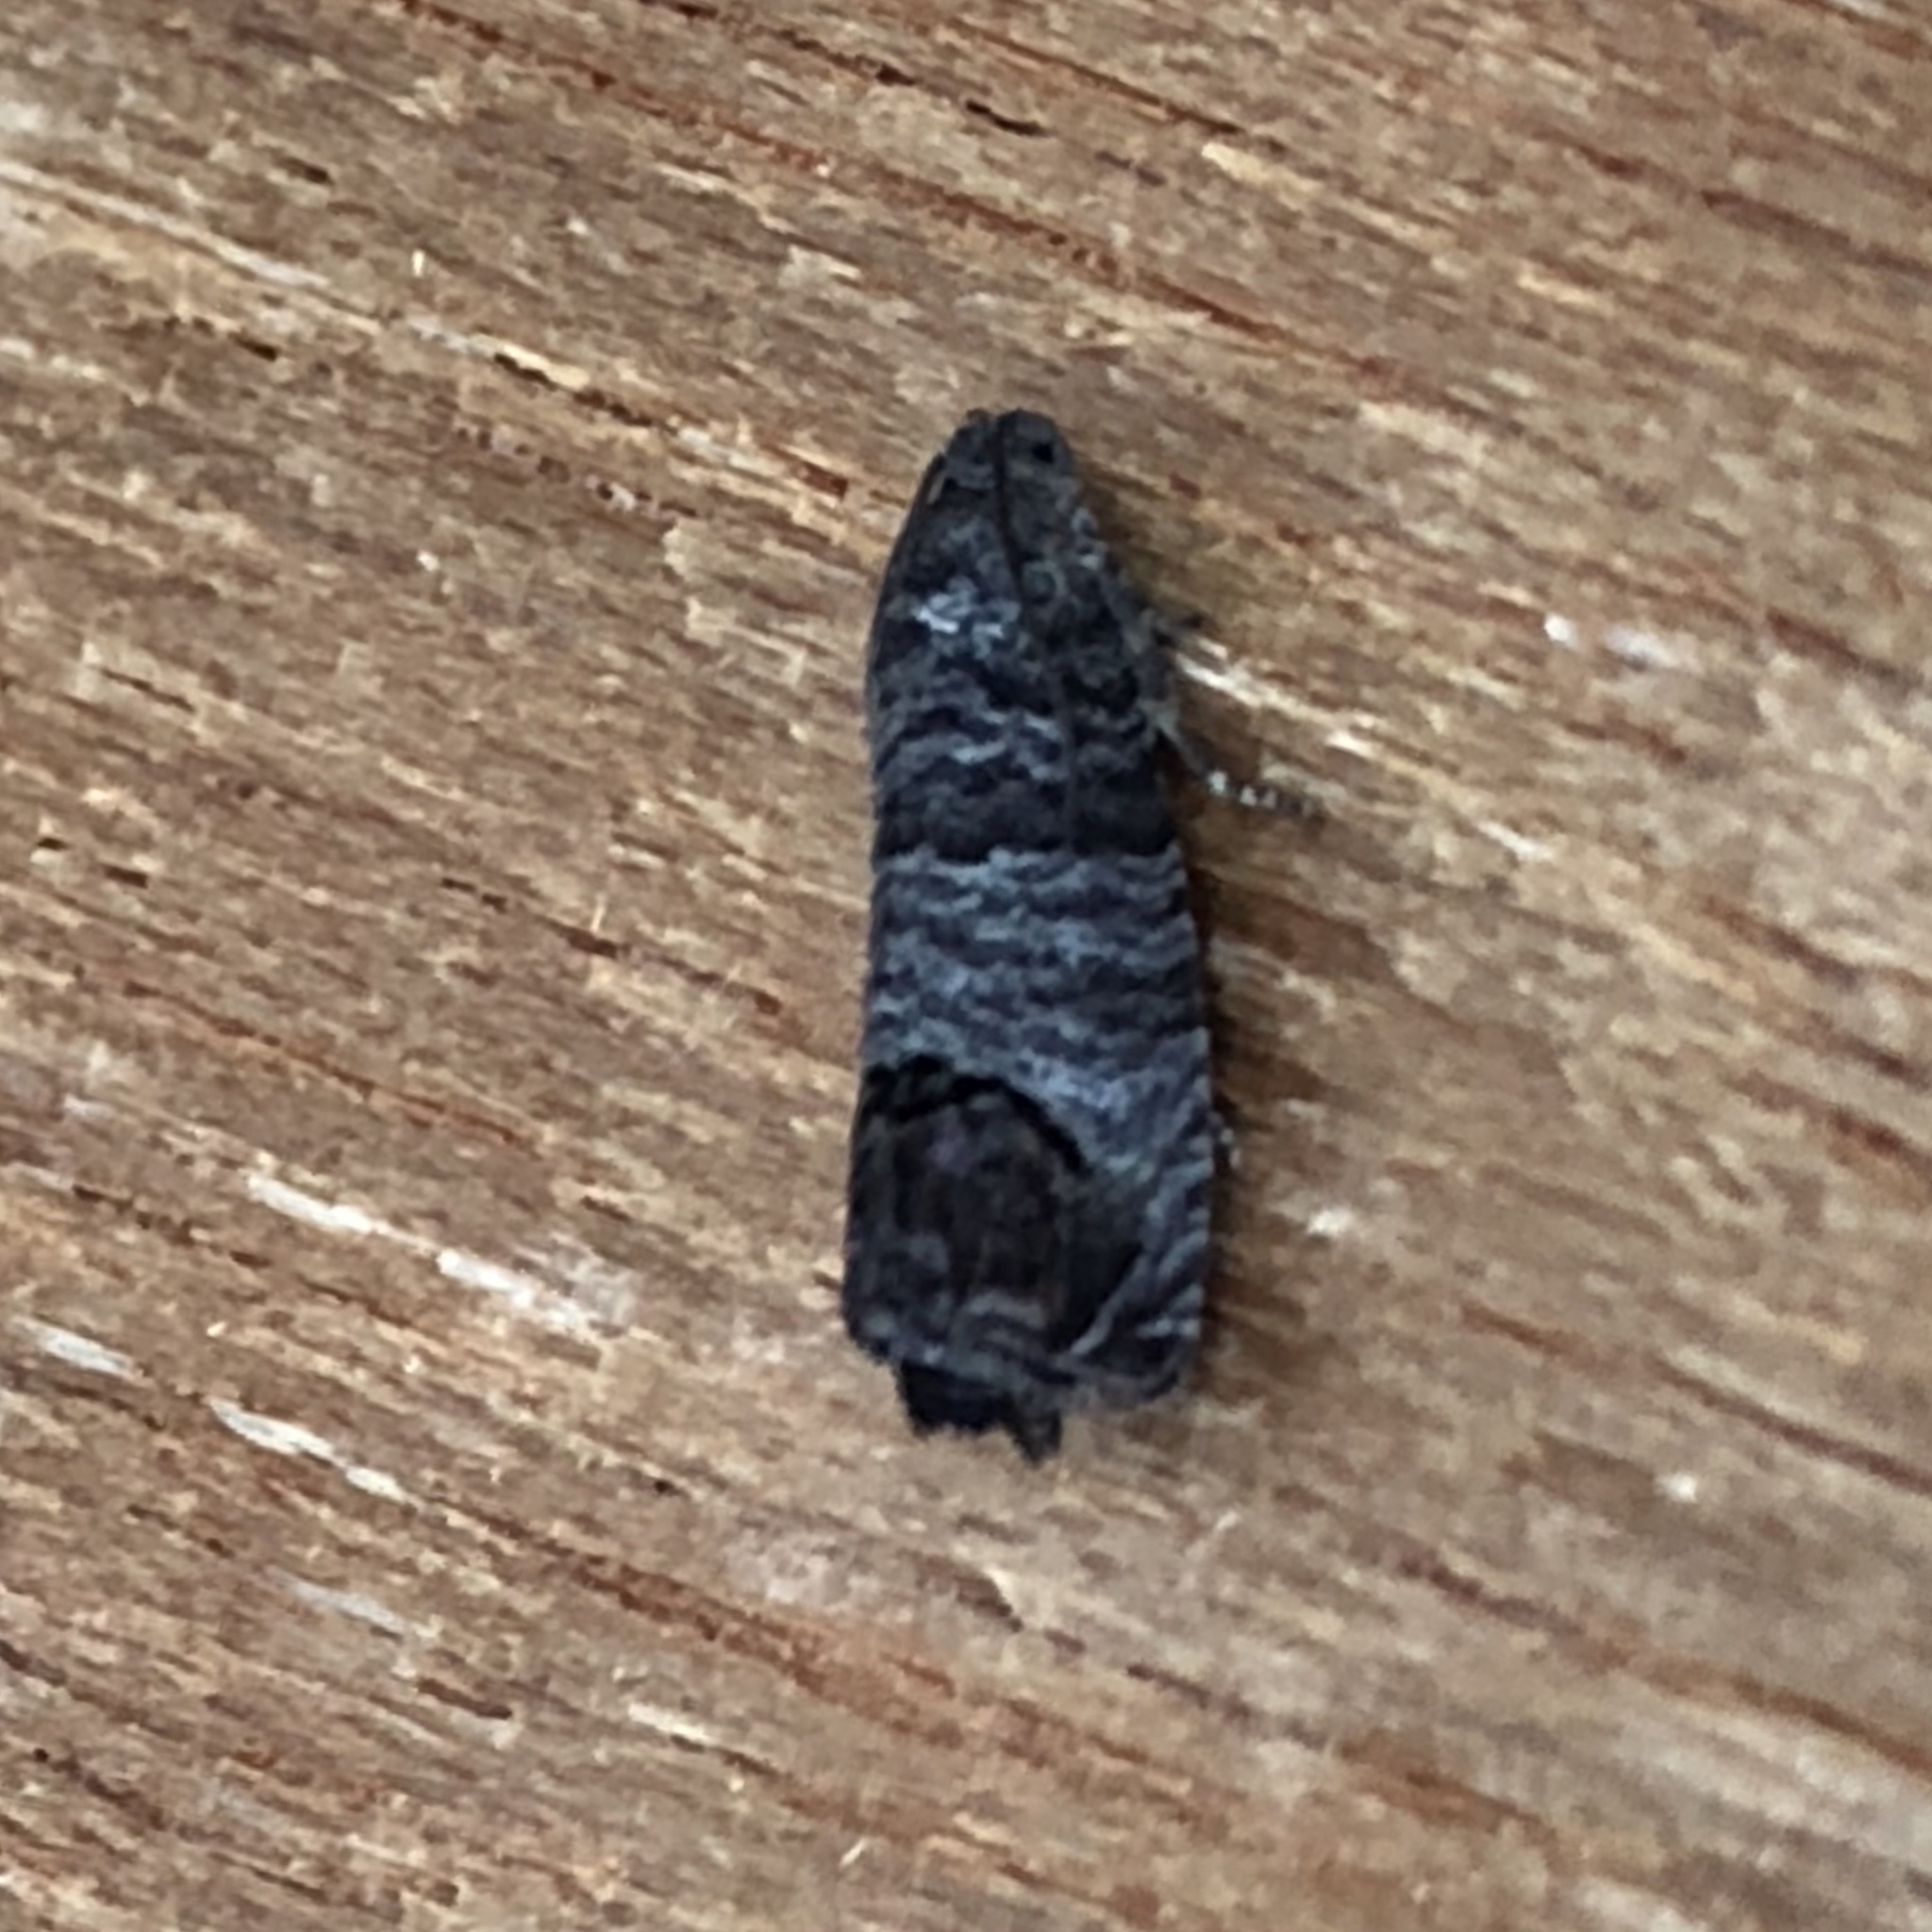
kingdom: Animalia
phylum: Arthropoda
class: Insecta
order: Lepidoptera
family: Tortricidae
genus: Cydia
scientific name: Cydia pomonella
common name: Codling moth
